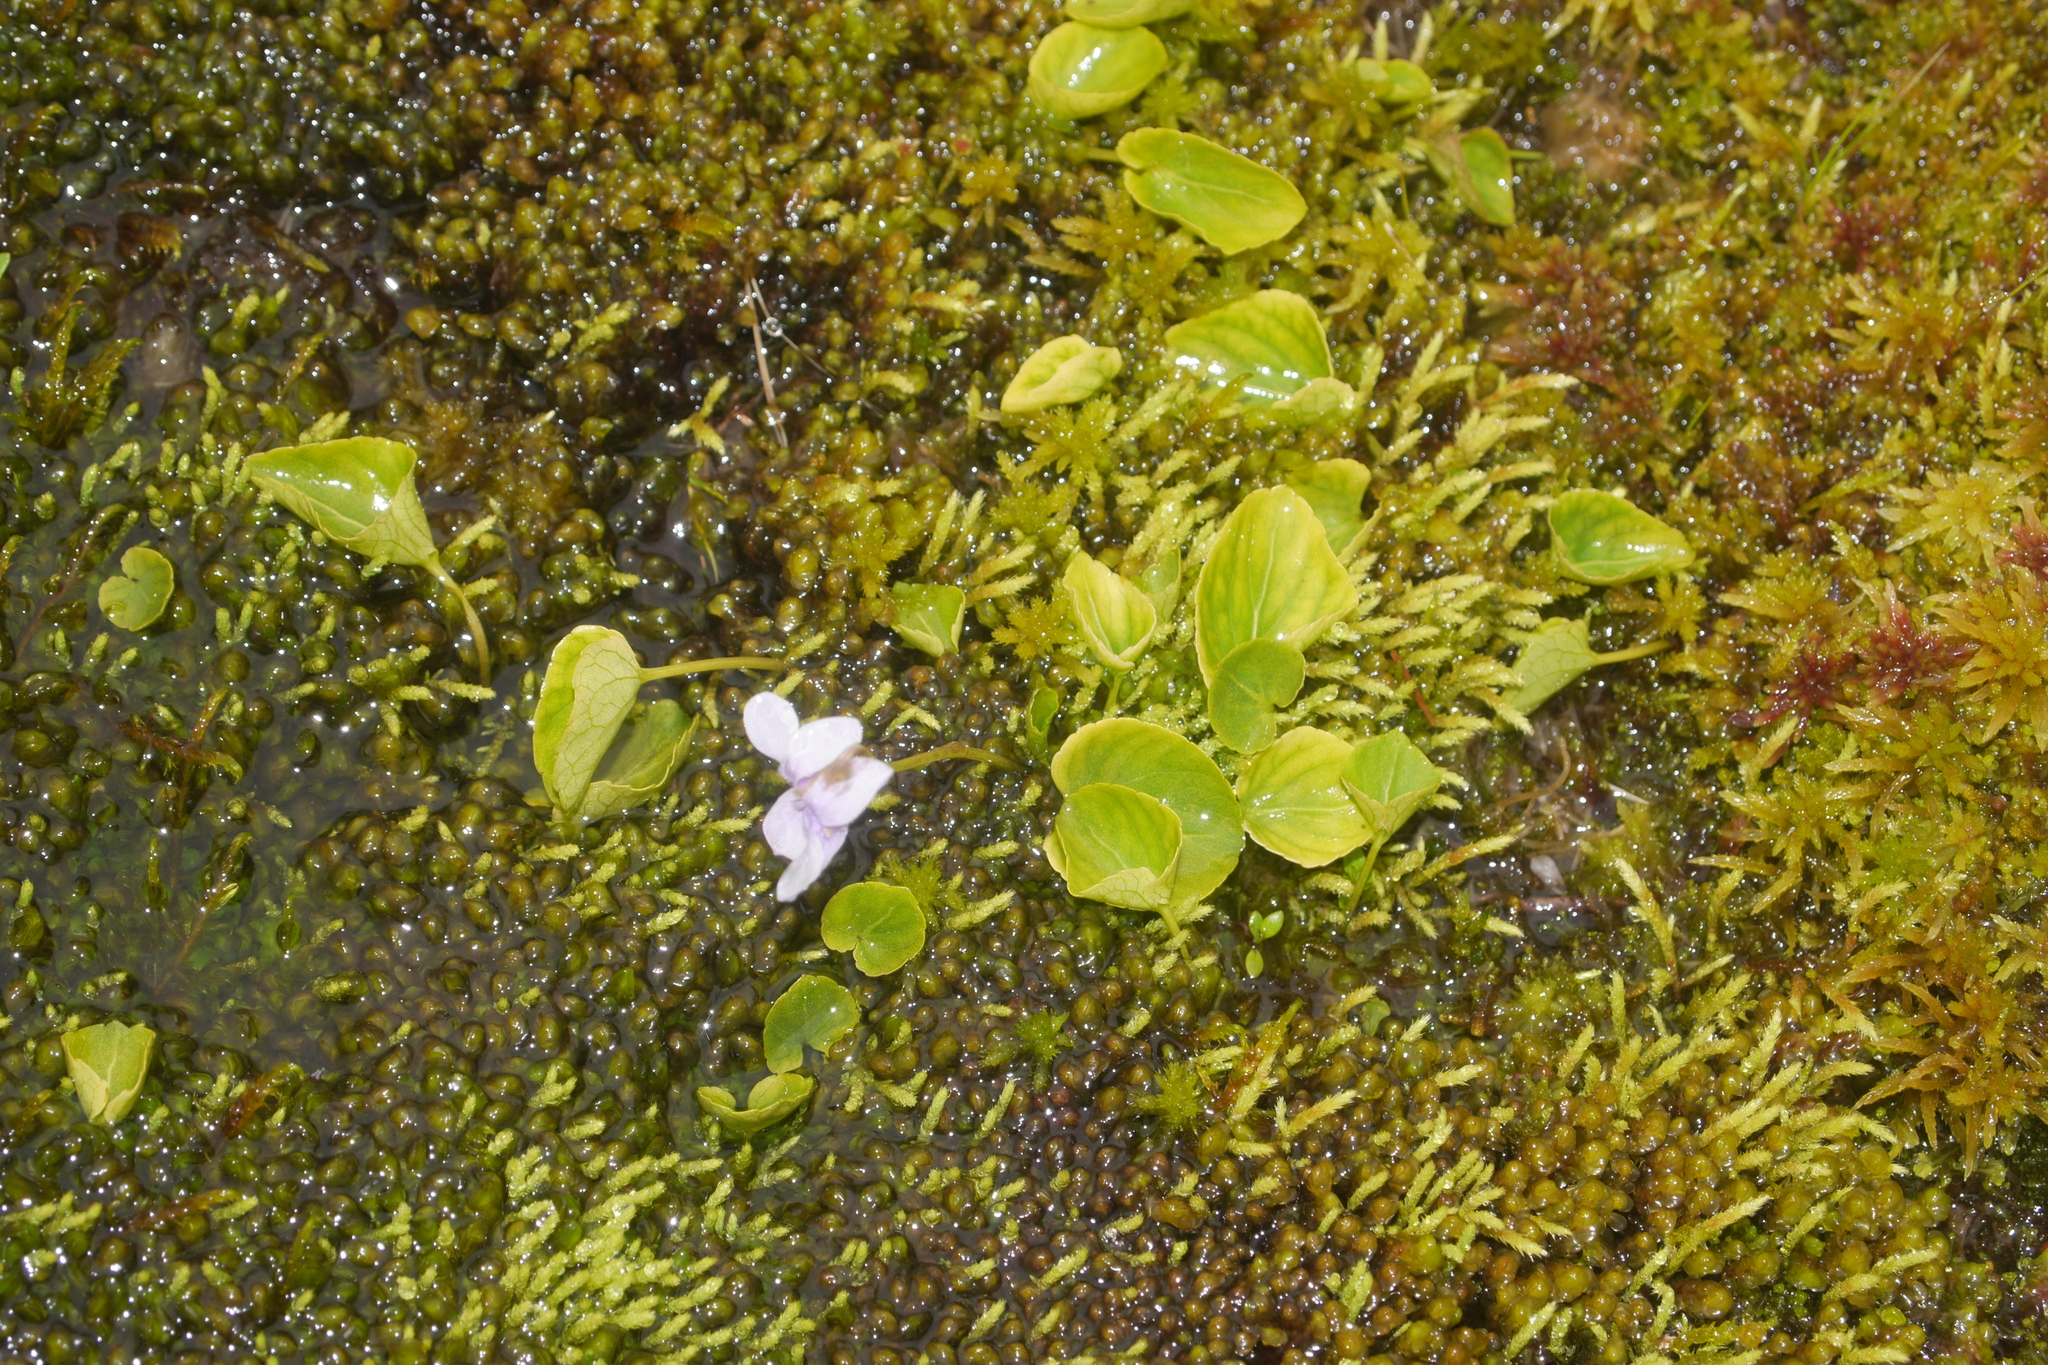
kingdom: Plantae
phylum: Tracheophyta
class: Magnoliopsida
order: Malpighiales
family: Violaceae
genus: Viola
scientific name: Viola palustris
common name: Marsh violet
